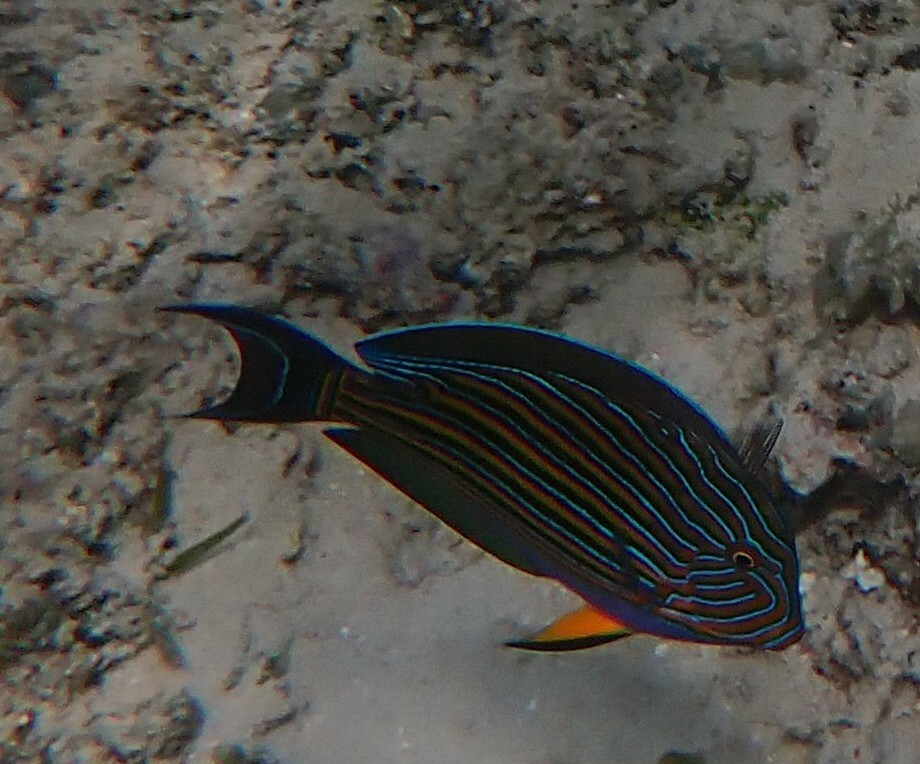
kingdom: Animalia
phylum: Chordata
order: Perciformes
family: Acanthuridae
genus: Acanthurus
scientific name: Acanthurus lineatus
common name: Striped surgeonfish
